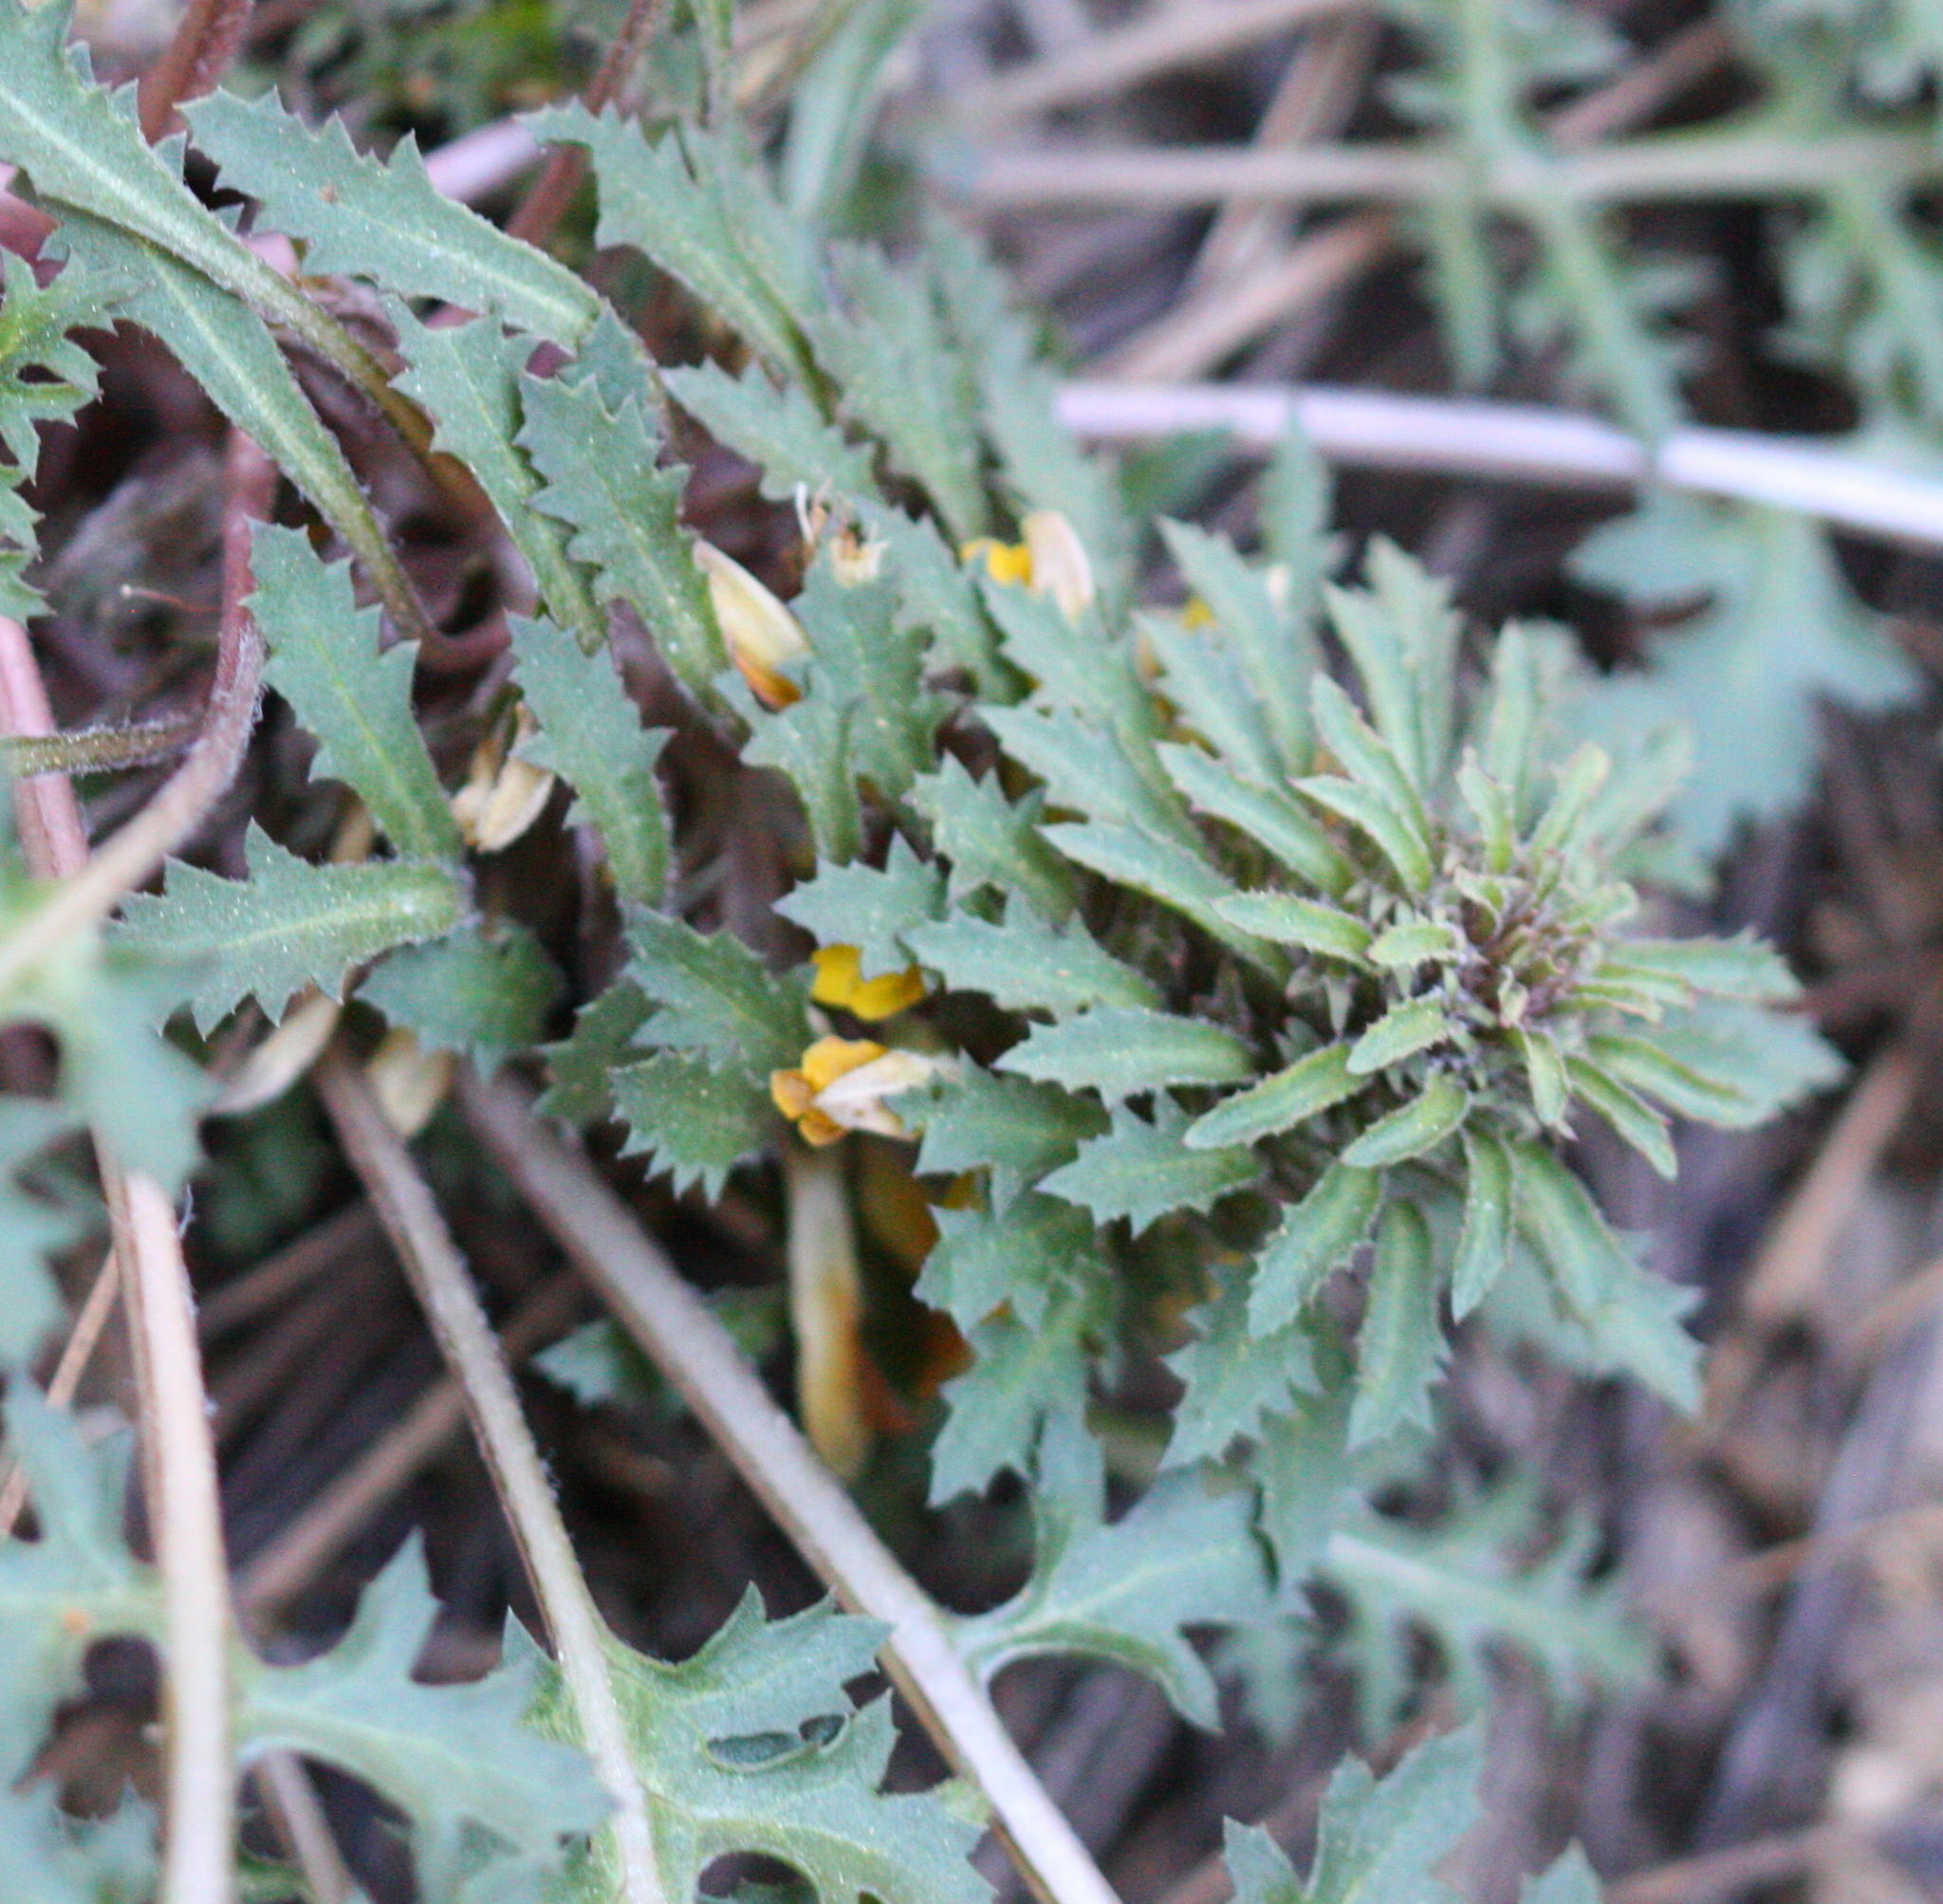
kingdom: Plantae
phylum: Tracheophyta
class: Magnoliopsida
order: Lamiales
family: Orobanchaceae
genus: Pedicularis
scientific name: Pedicularis semibarbata
